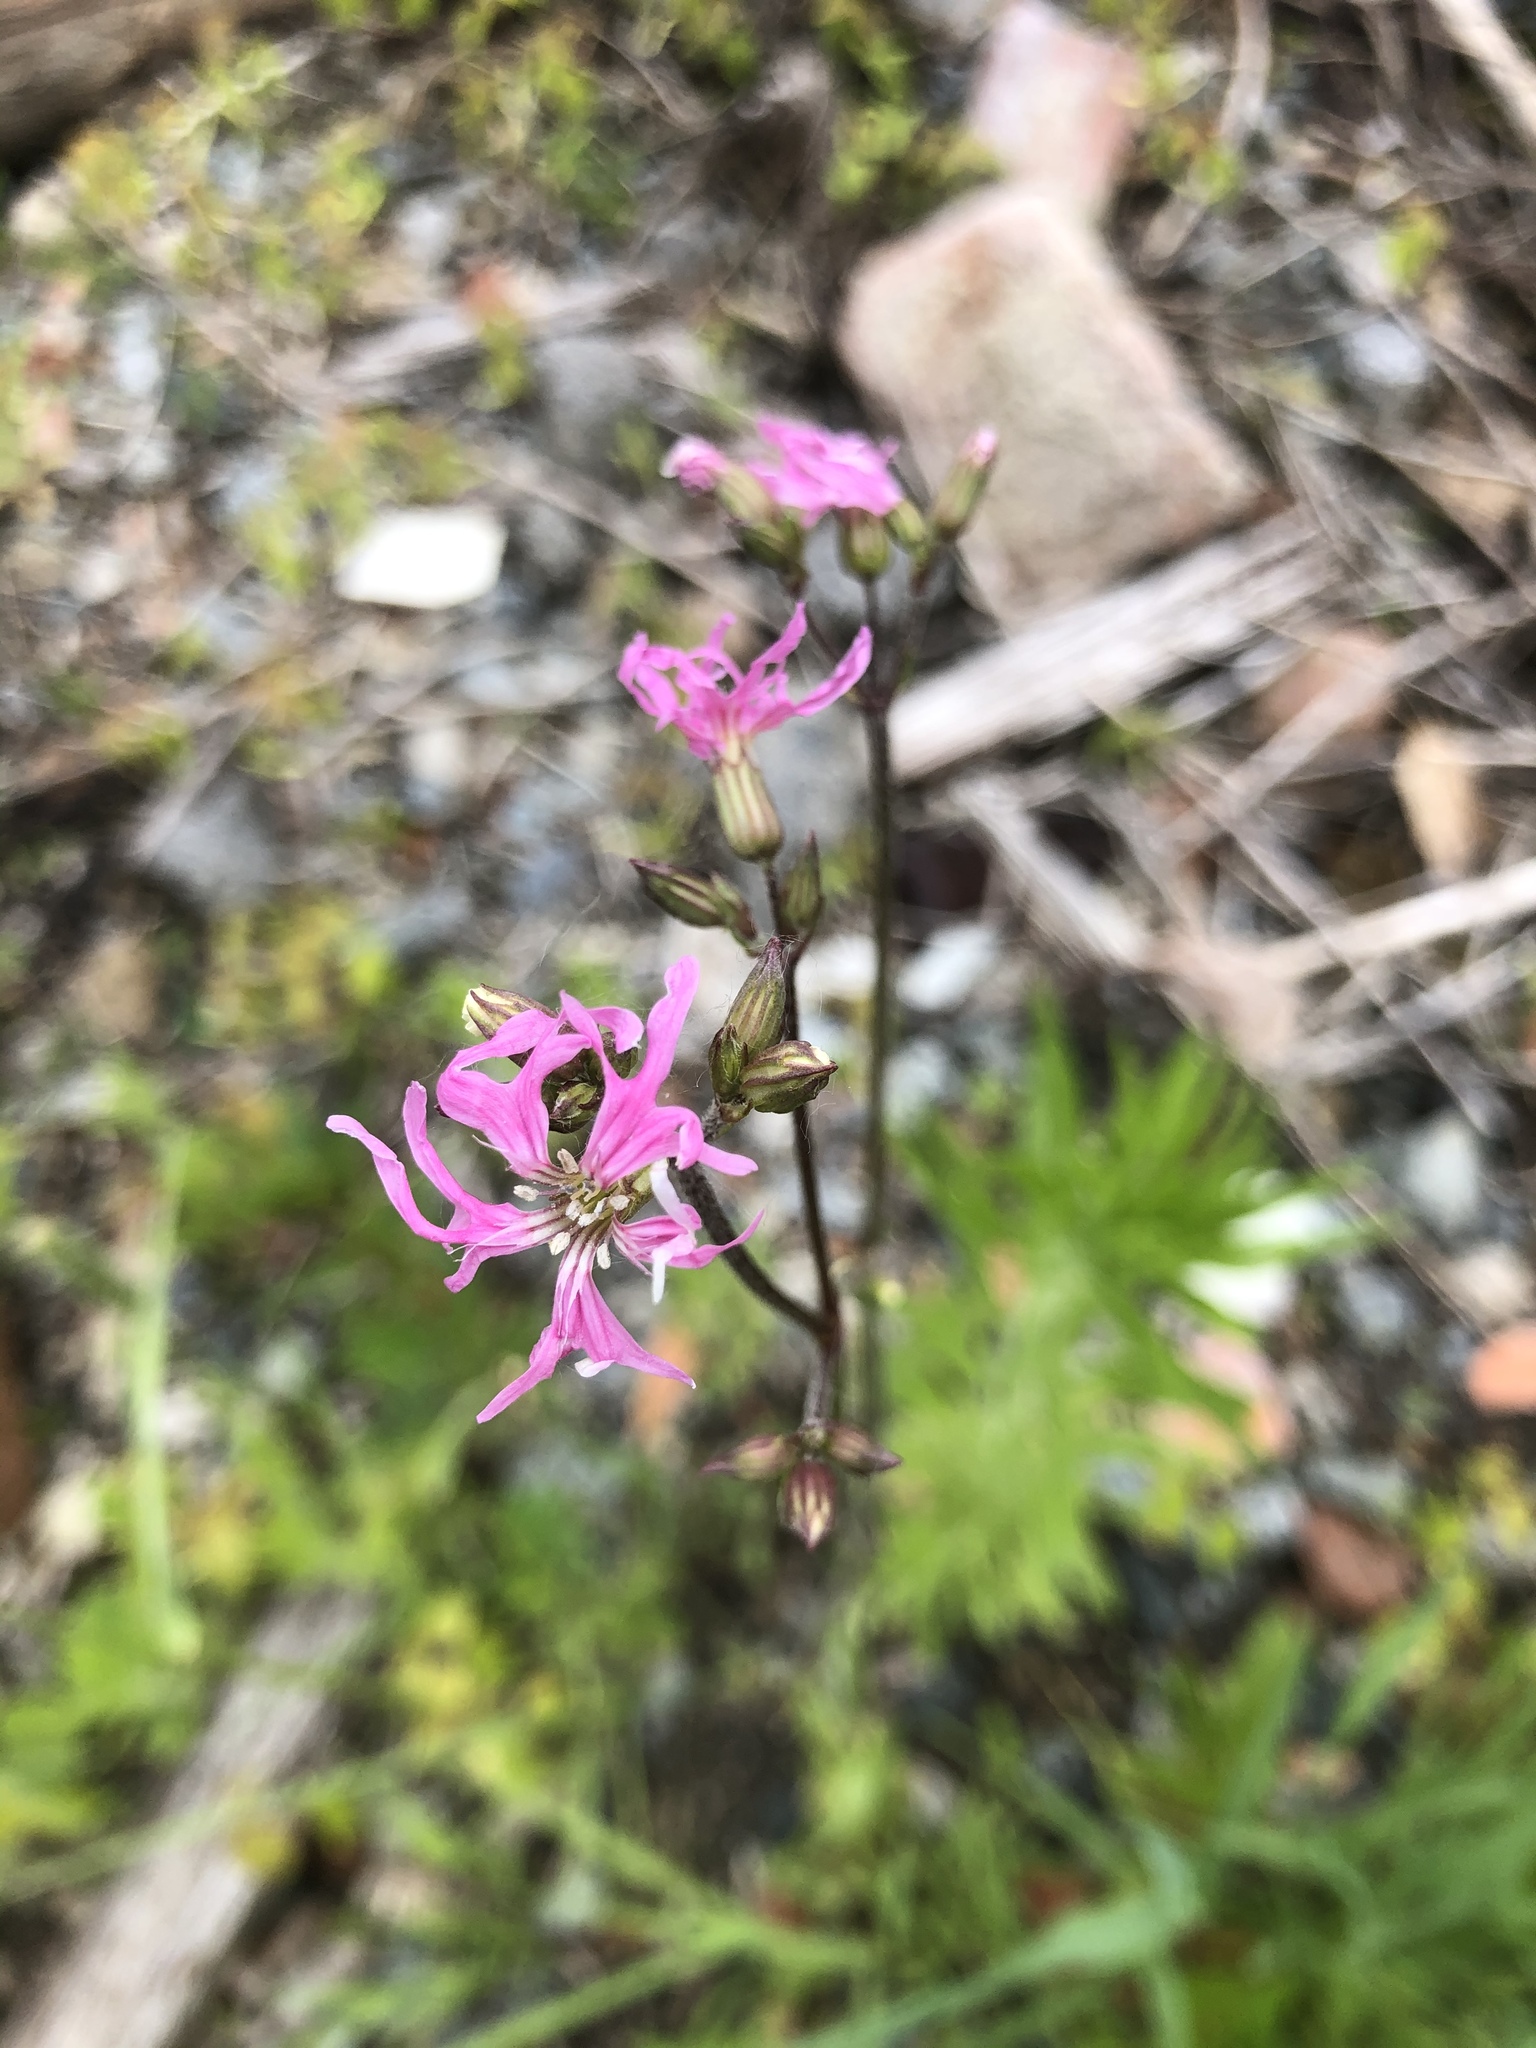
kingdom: Plantae
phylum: Tracheophyta
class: Magnoliopsida
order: Caryophyllales
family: Caryophyllaceae
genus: Silene
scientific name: Silene flos-cuculi
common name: Ragged-robin
